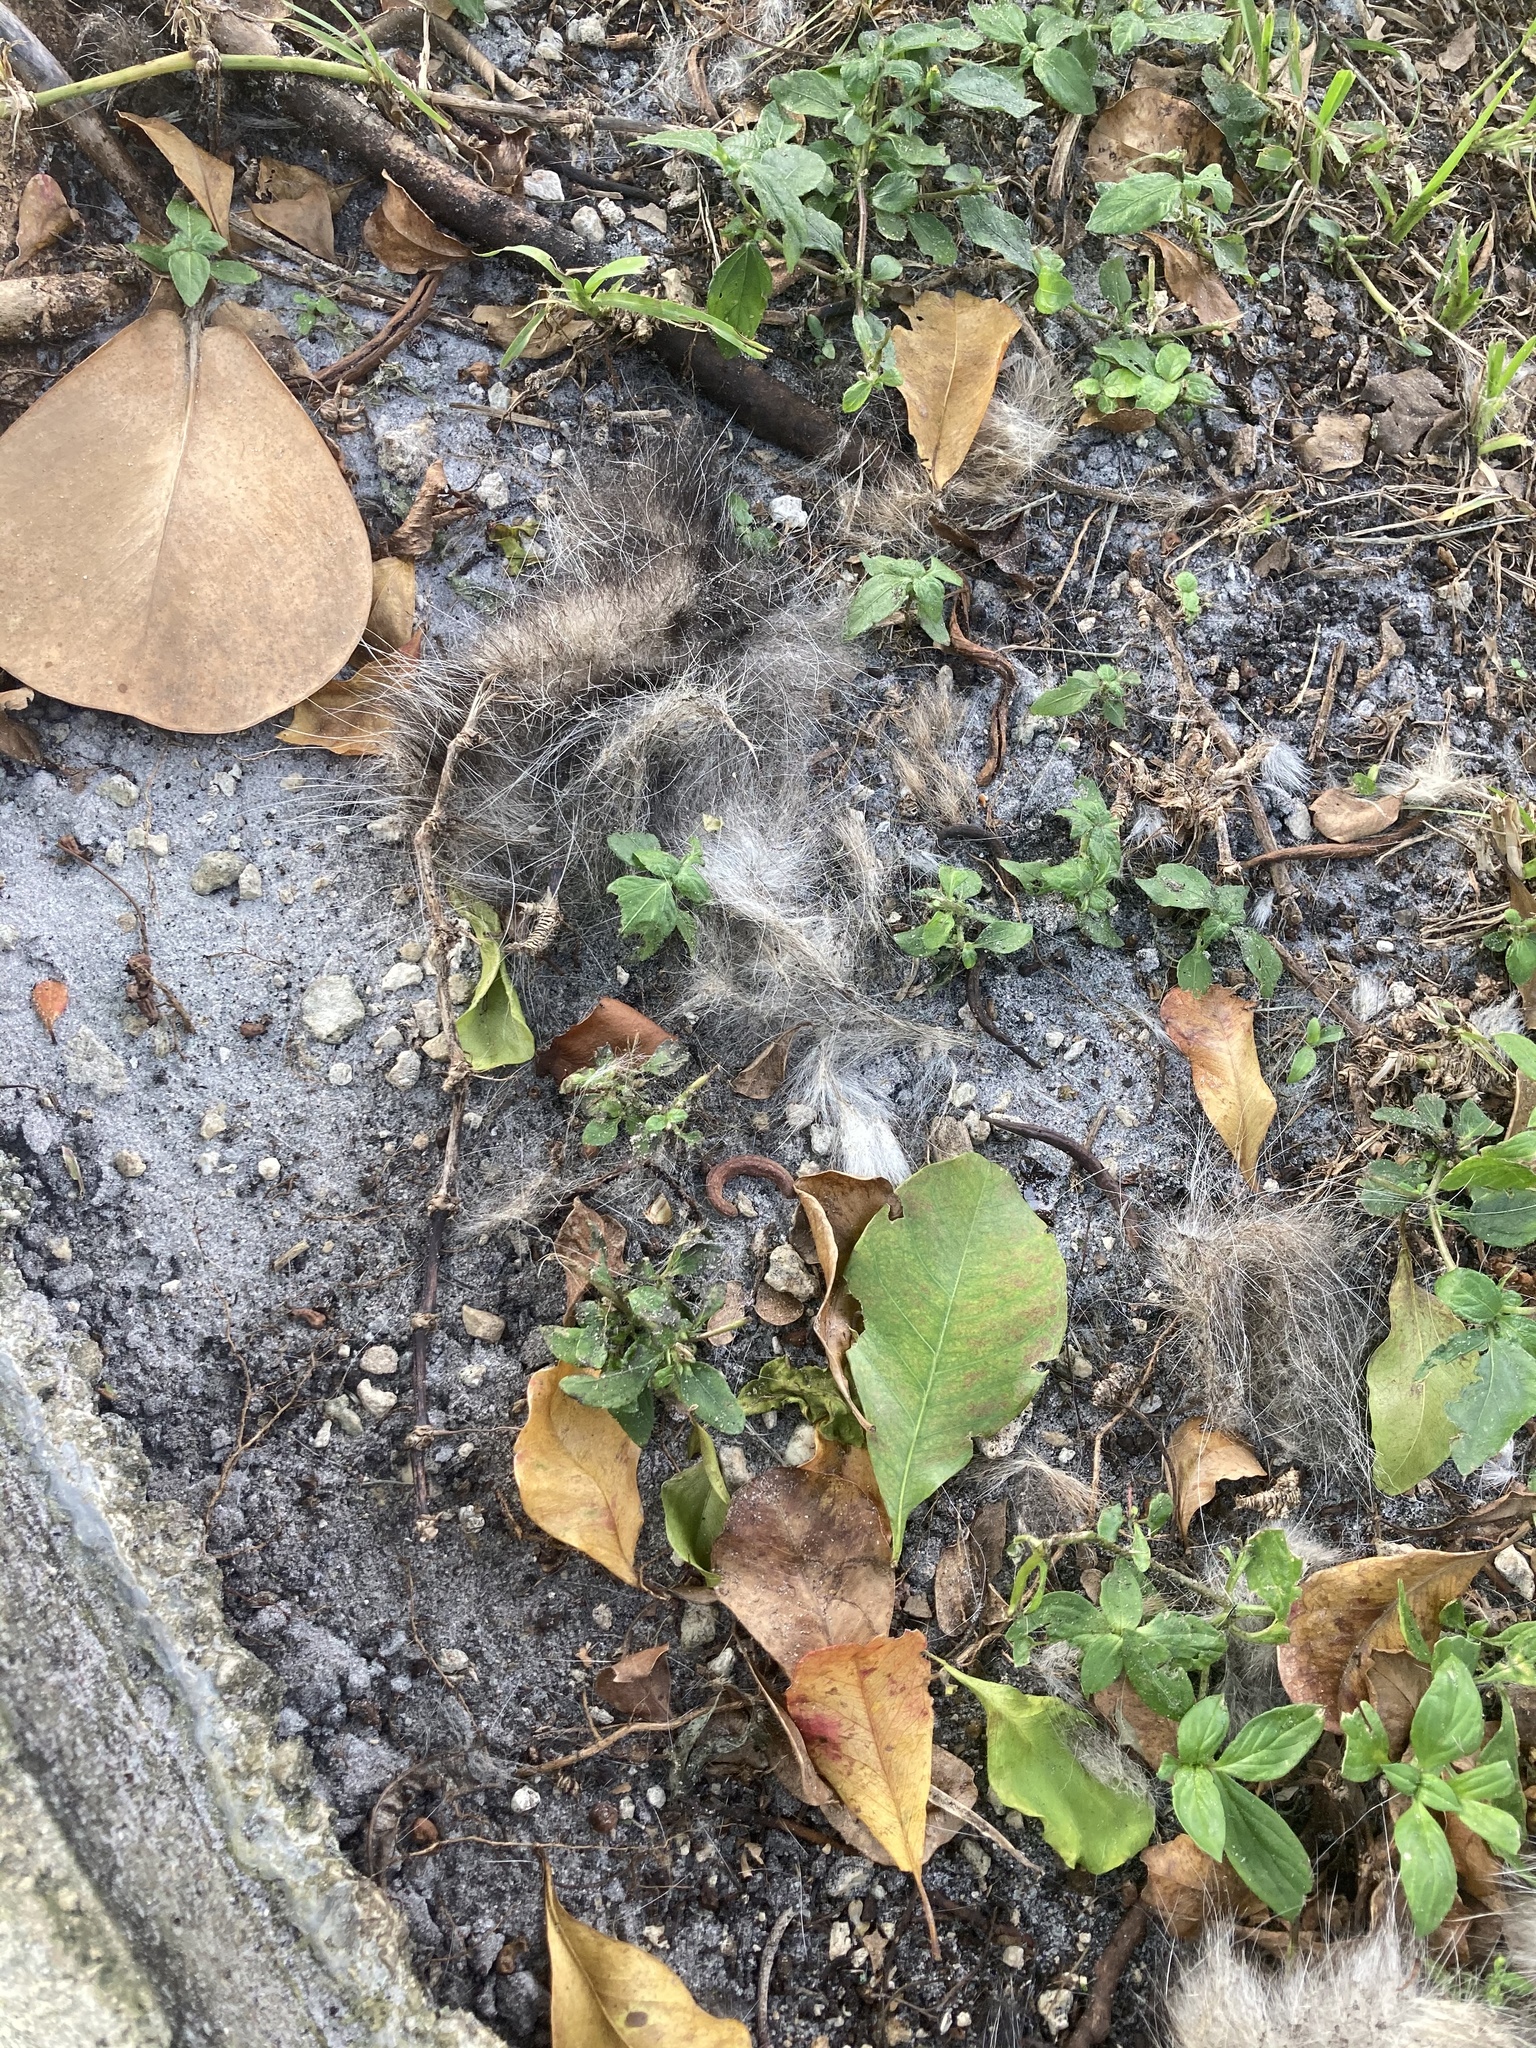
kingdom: Animalia
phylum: Chordata
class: Mammalia
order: Didelphimorphia
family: Didelphidae
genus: Didelphis
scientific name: Didelphis virginiana
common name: Virginia opossum
